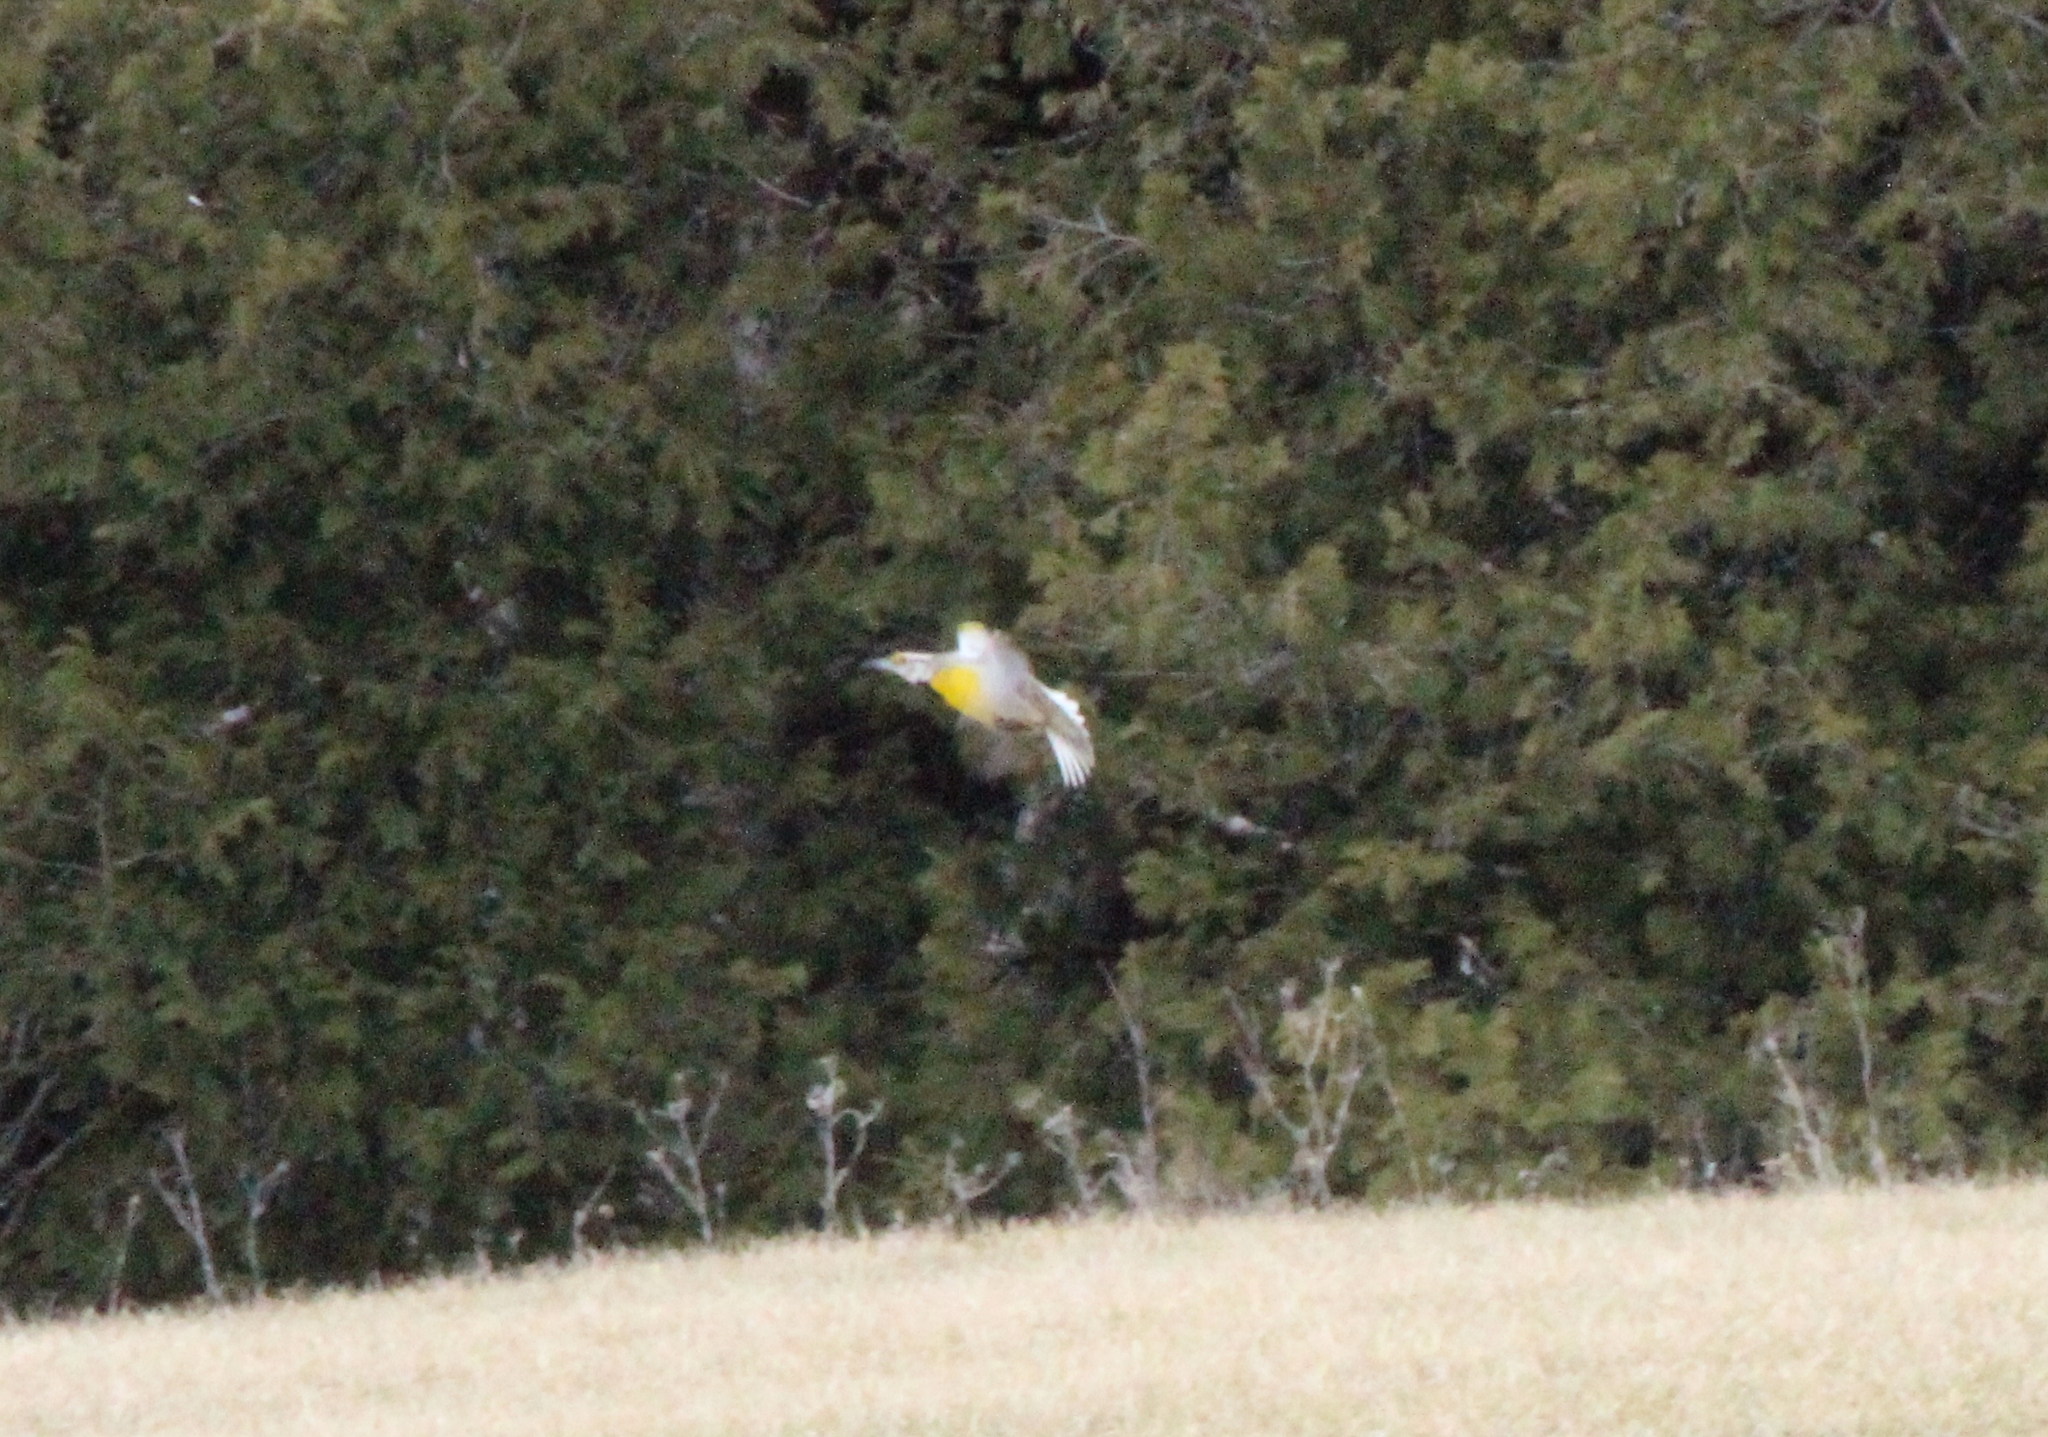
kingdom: Animalia
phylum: Chordata
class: Aves
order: Passeriformes
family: Icteridae
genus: Sturnella
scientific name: Sturnella magna
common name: Eastern meadowlark
